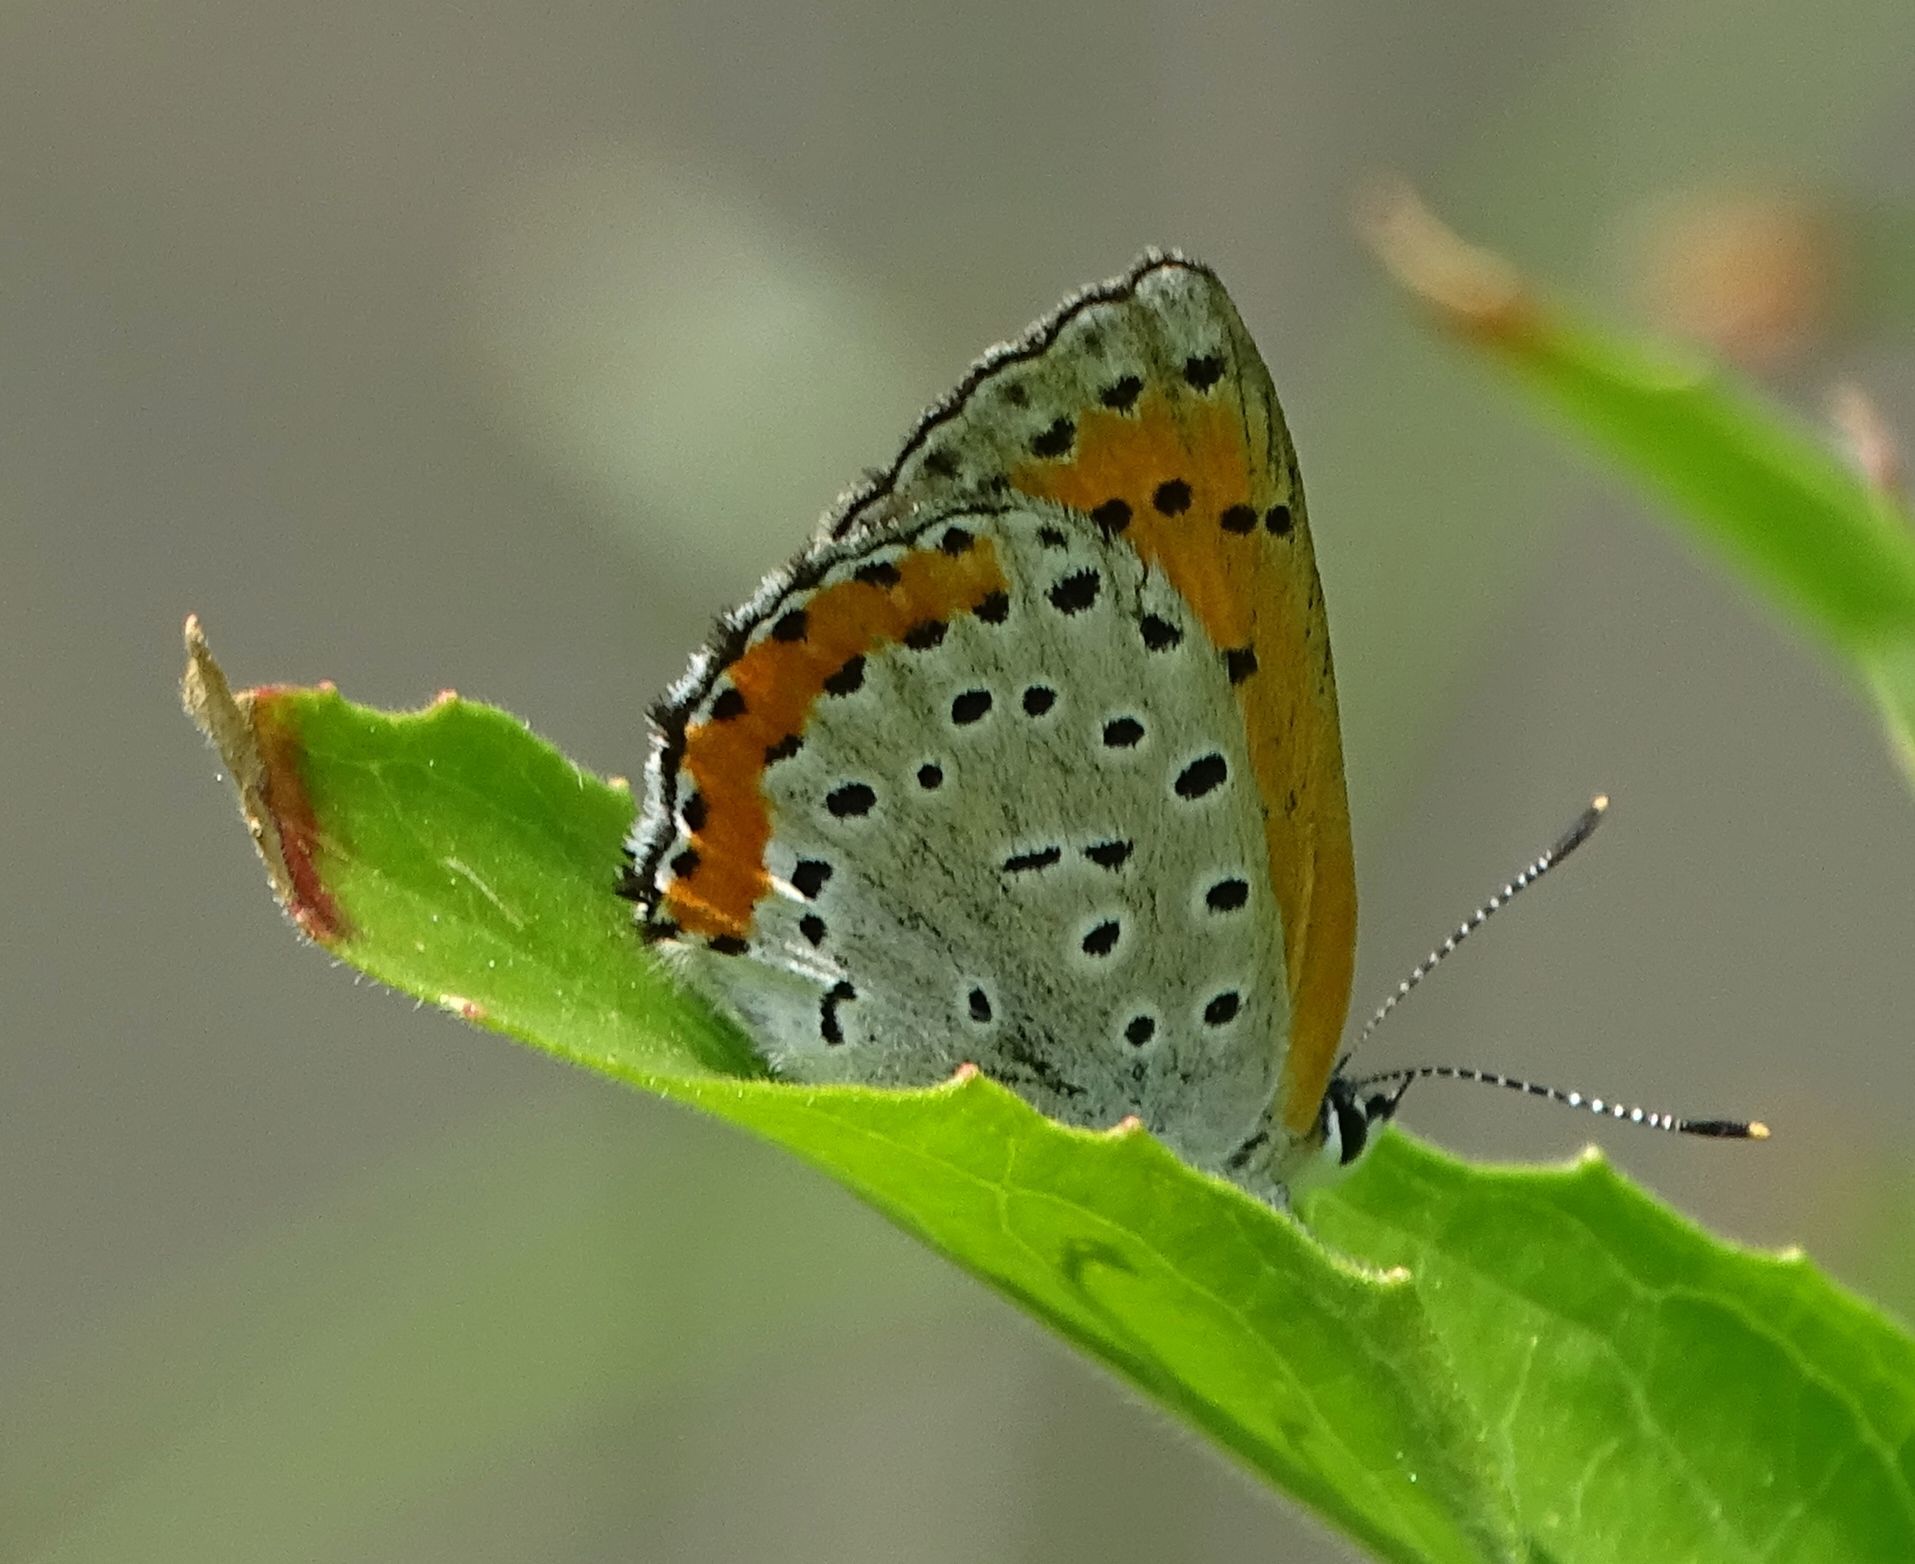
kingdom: Animalia
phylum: Arthropoda
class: Insecta
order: Lepidoptera
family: Lycaenidae
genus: Tharsalea
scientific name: Tharsalea hyllus
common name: Bronze copper
